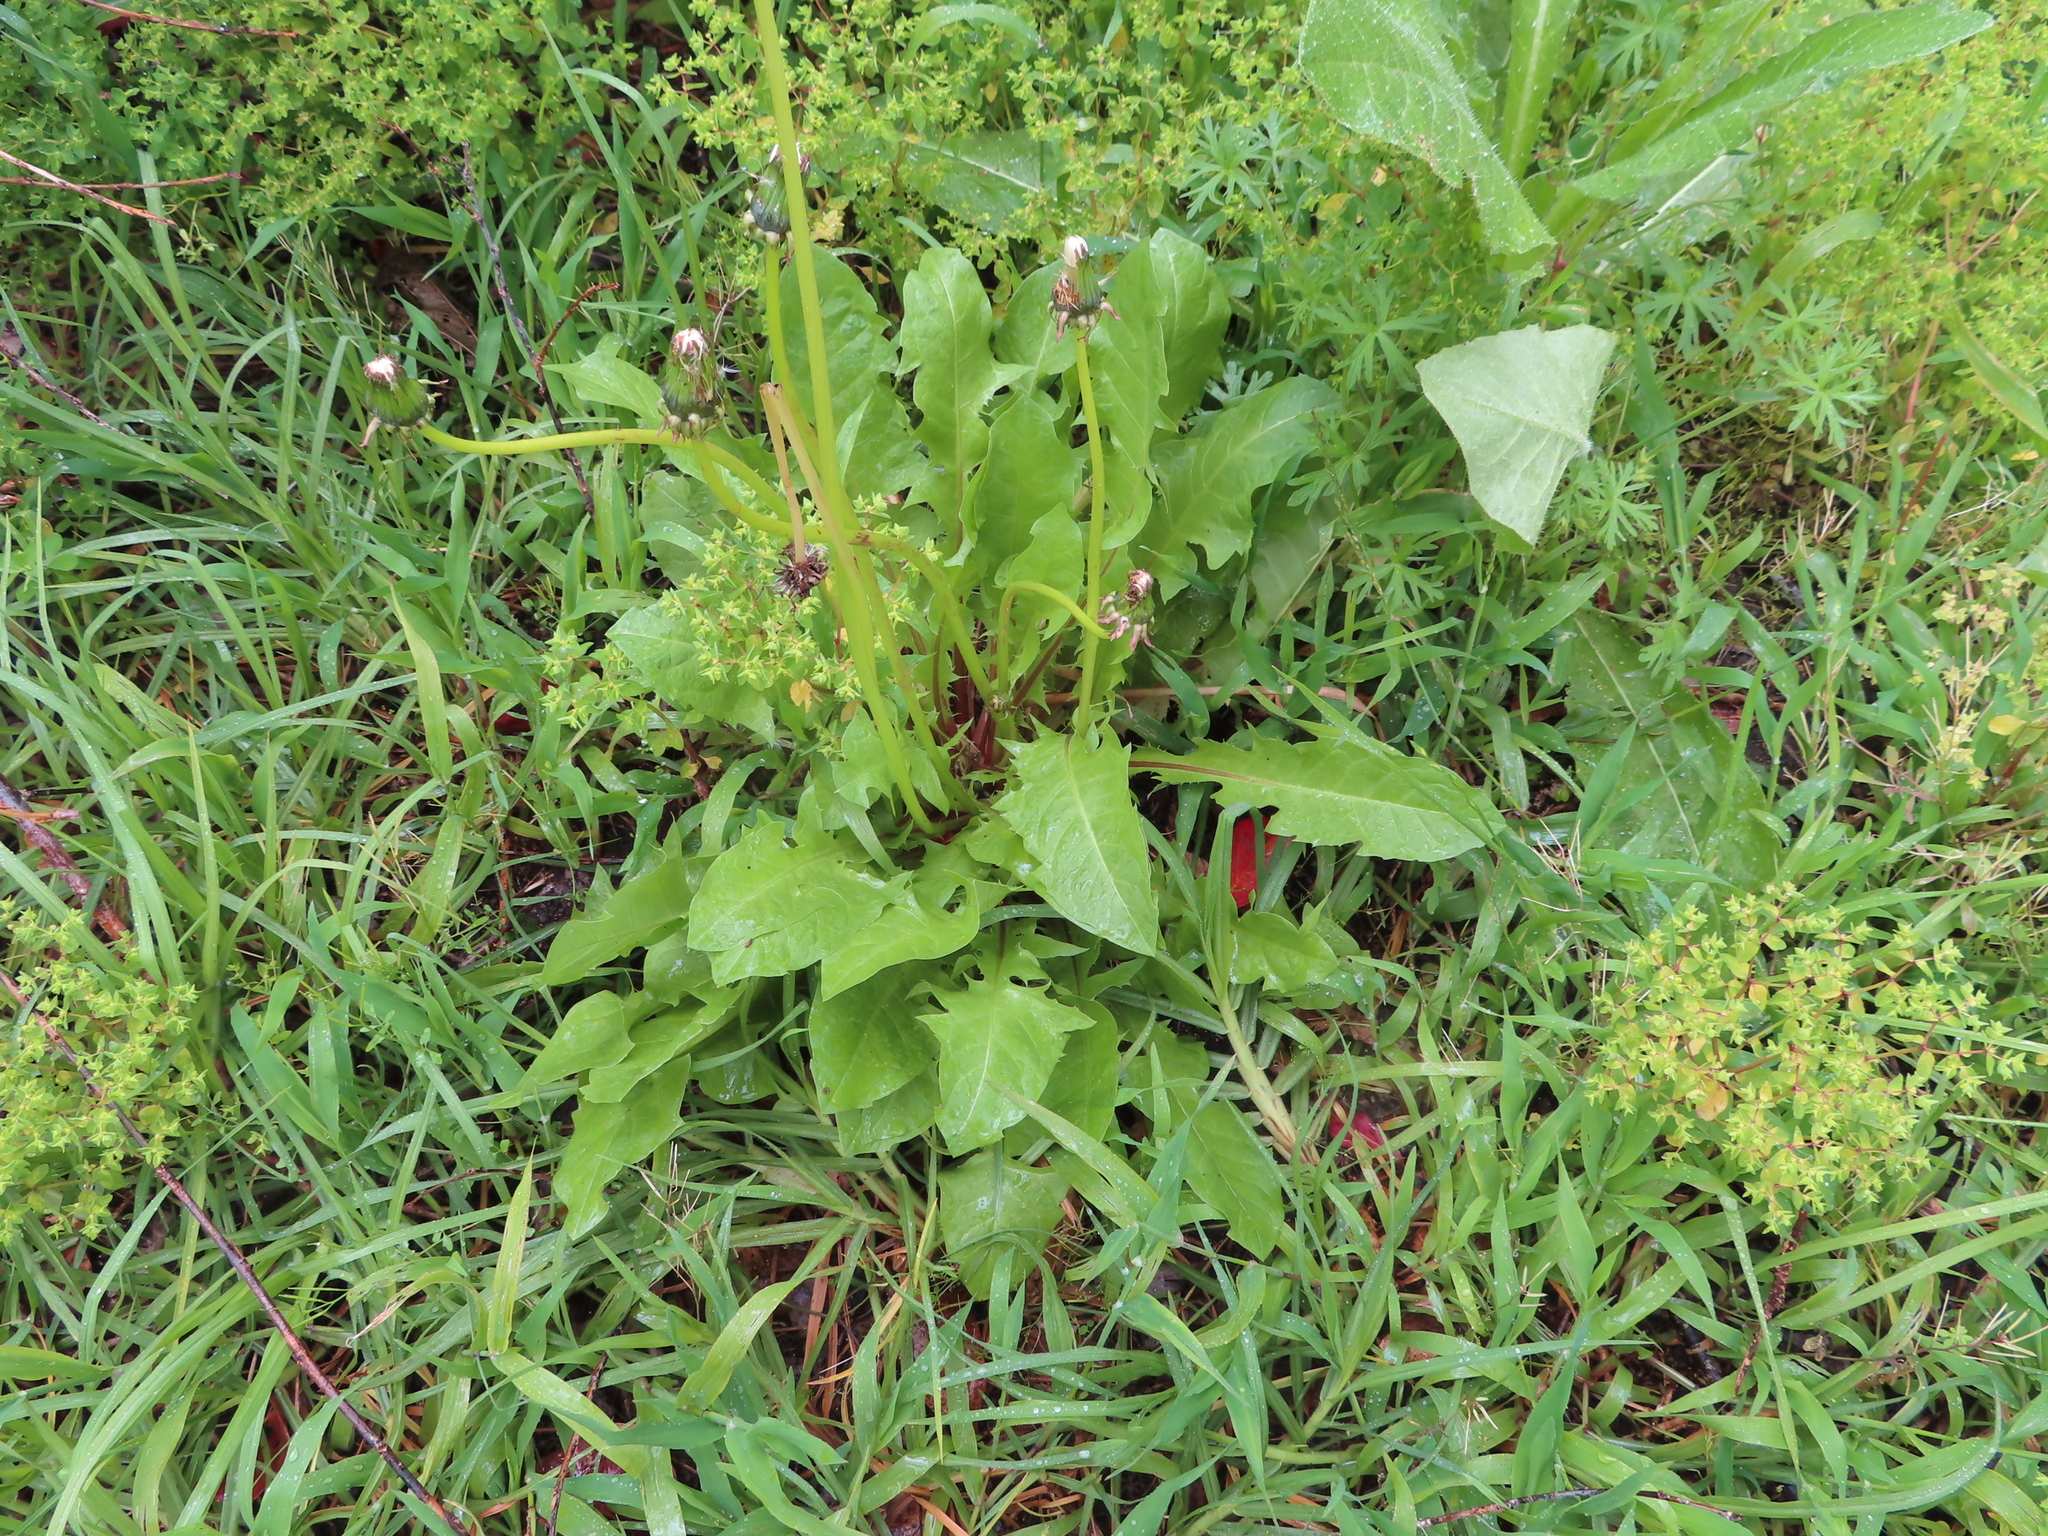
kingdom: Plantae
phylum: Tracheophyta
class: Magnoliopsida
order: Asterales
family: Asteraceae
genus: Taraxacum
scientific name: Taraxacum officinale
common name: Common dandelion
